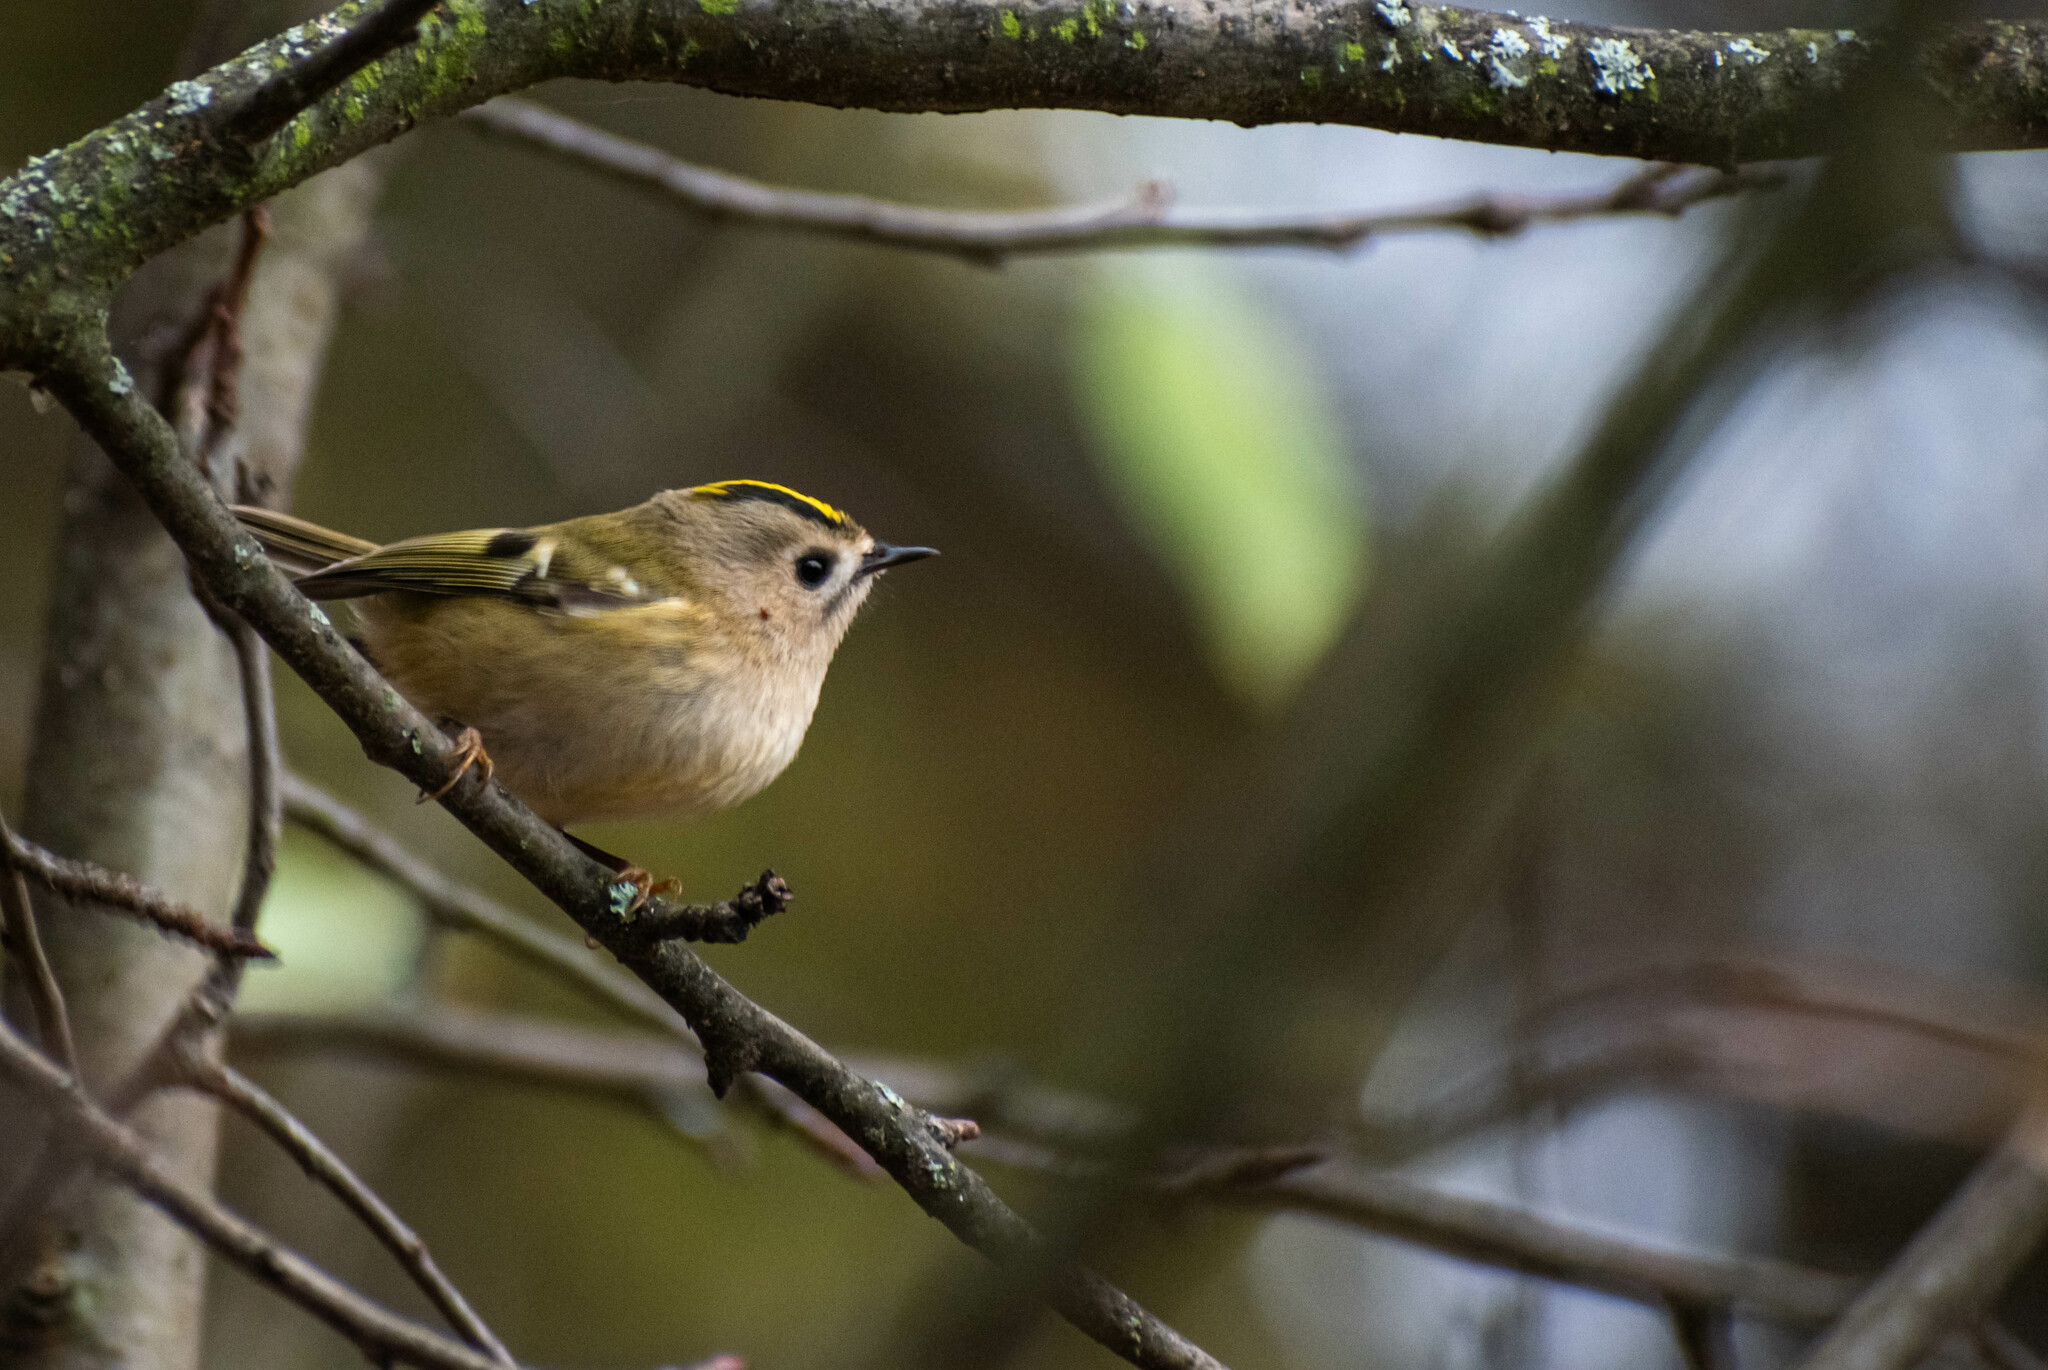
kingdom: Animalia
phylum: Chordata
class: Aves
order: Passeriformes
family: Regulidae
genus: Regulus
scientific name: Regulus regulus
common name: Goldcrest
